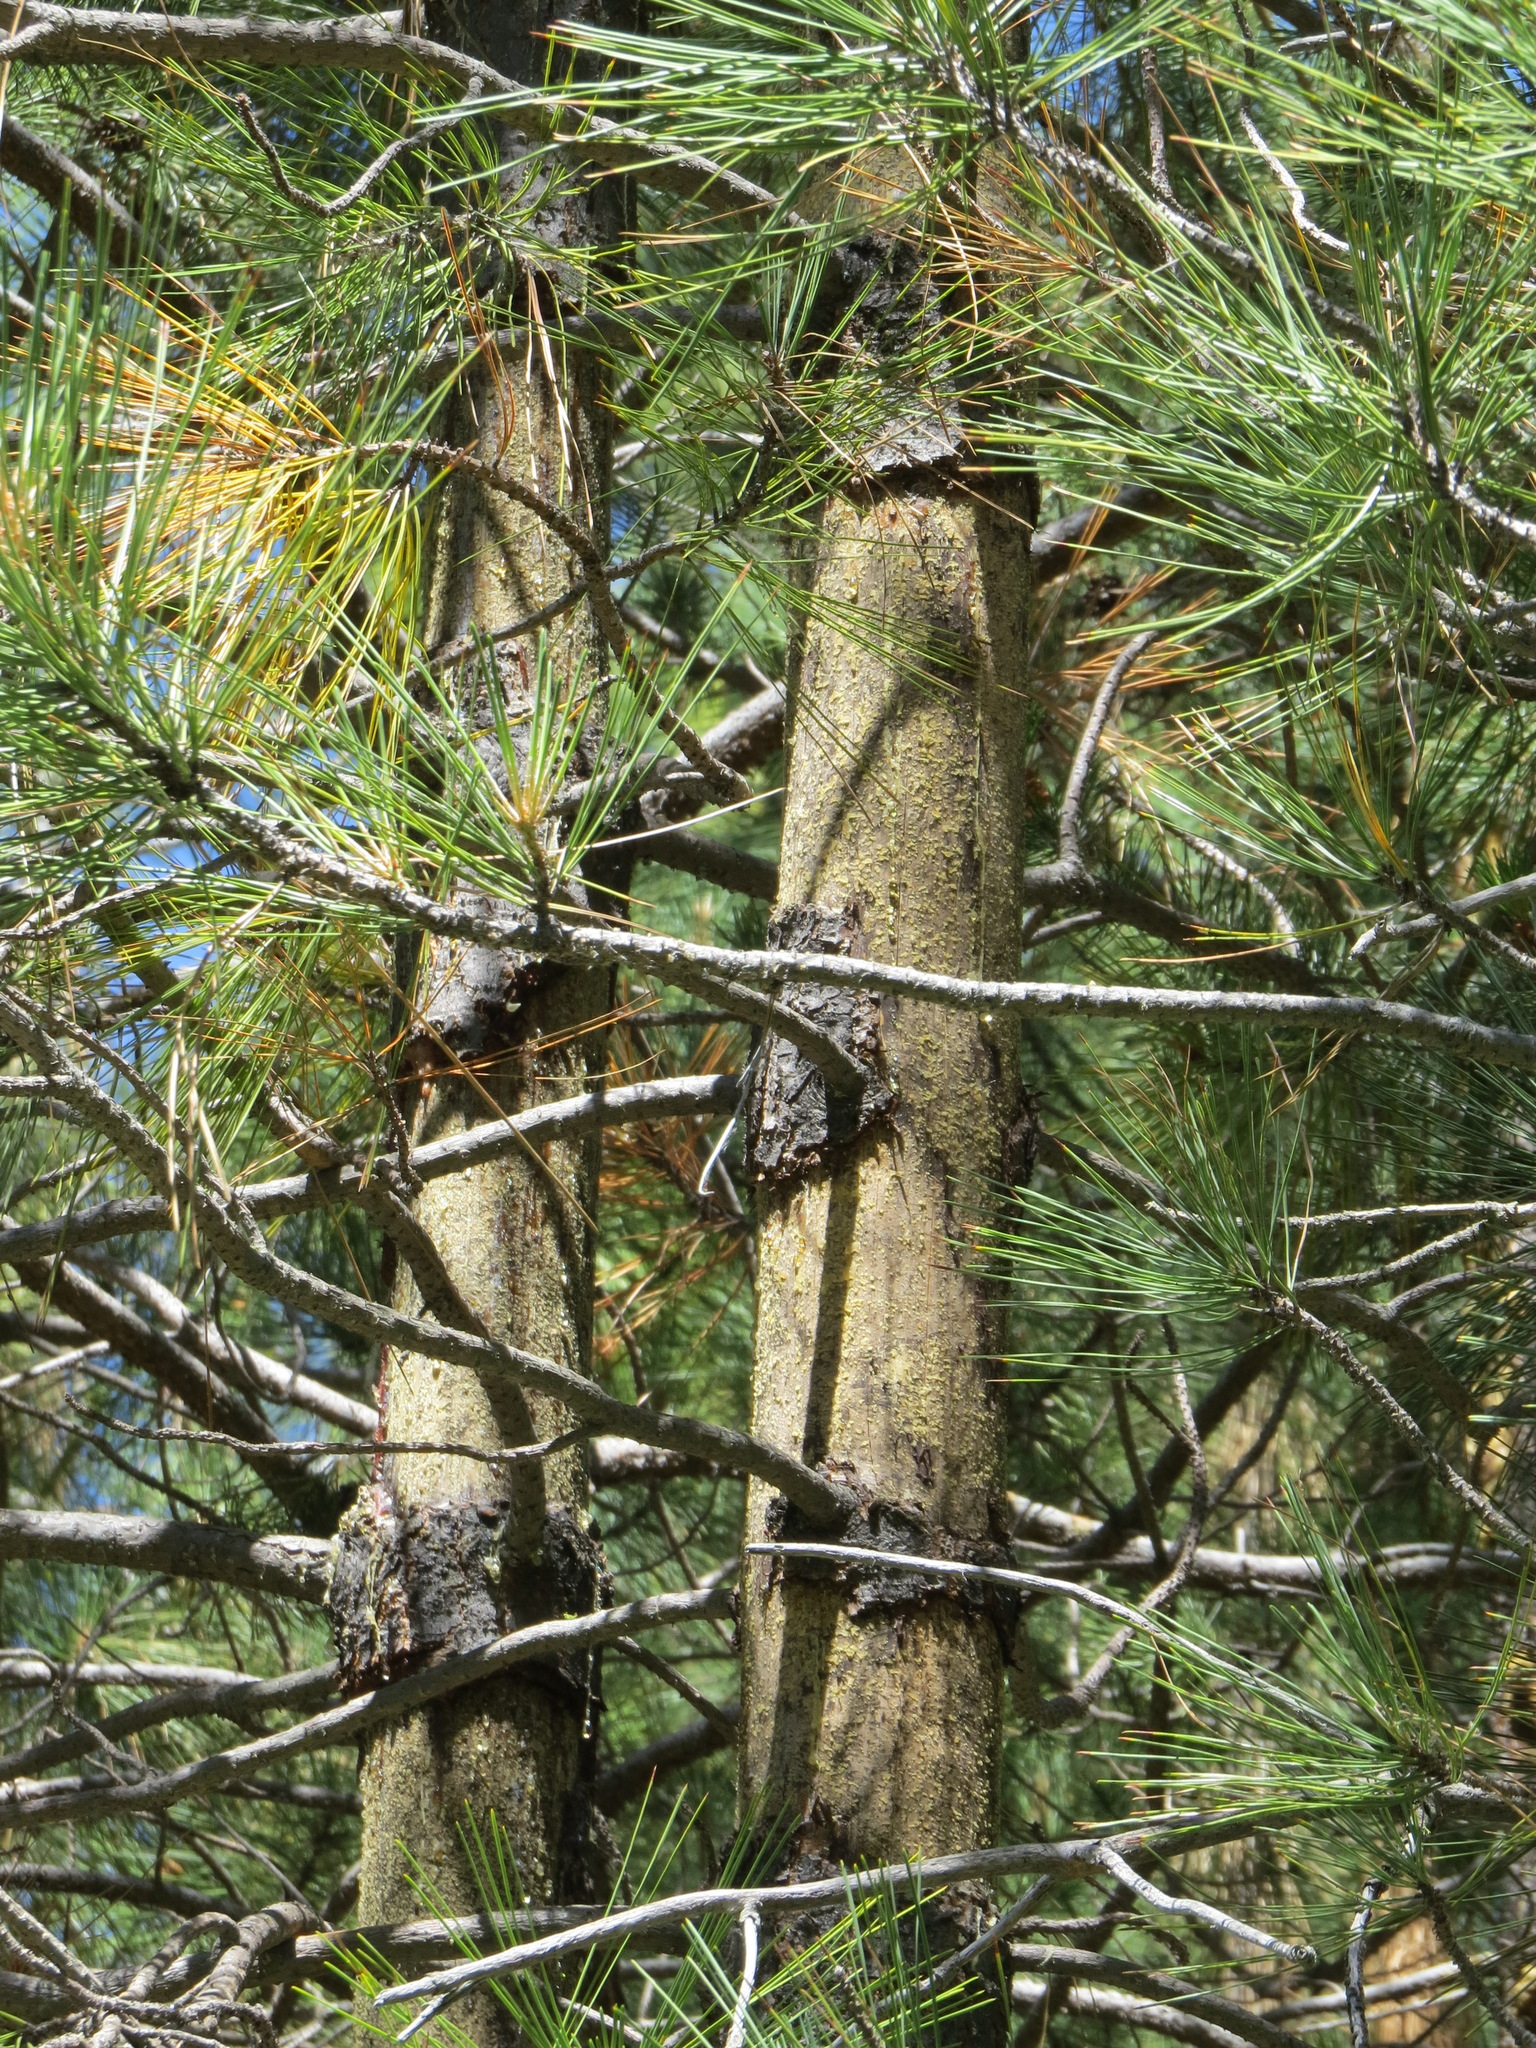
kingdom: Animalia
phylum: Chordata
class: Mammalia
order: Rodentia
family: Erethizontidae
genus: Erethizon
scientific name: Erethizon dorsatus
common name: North american porcupine
